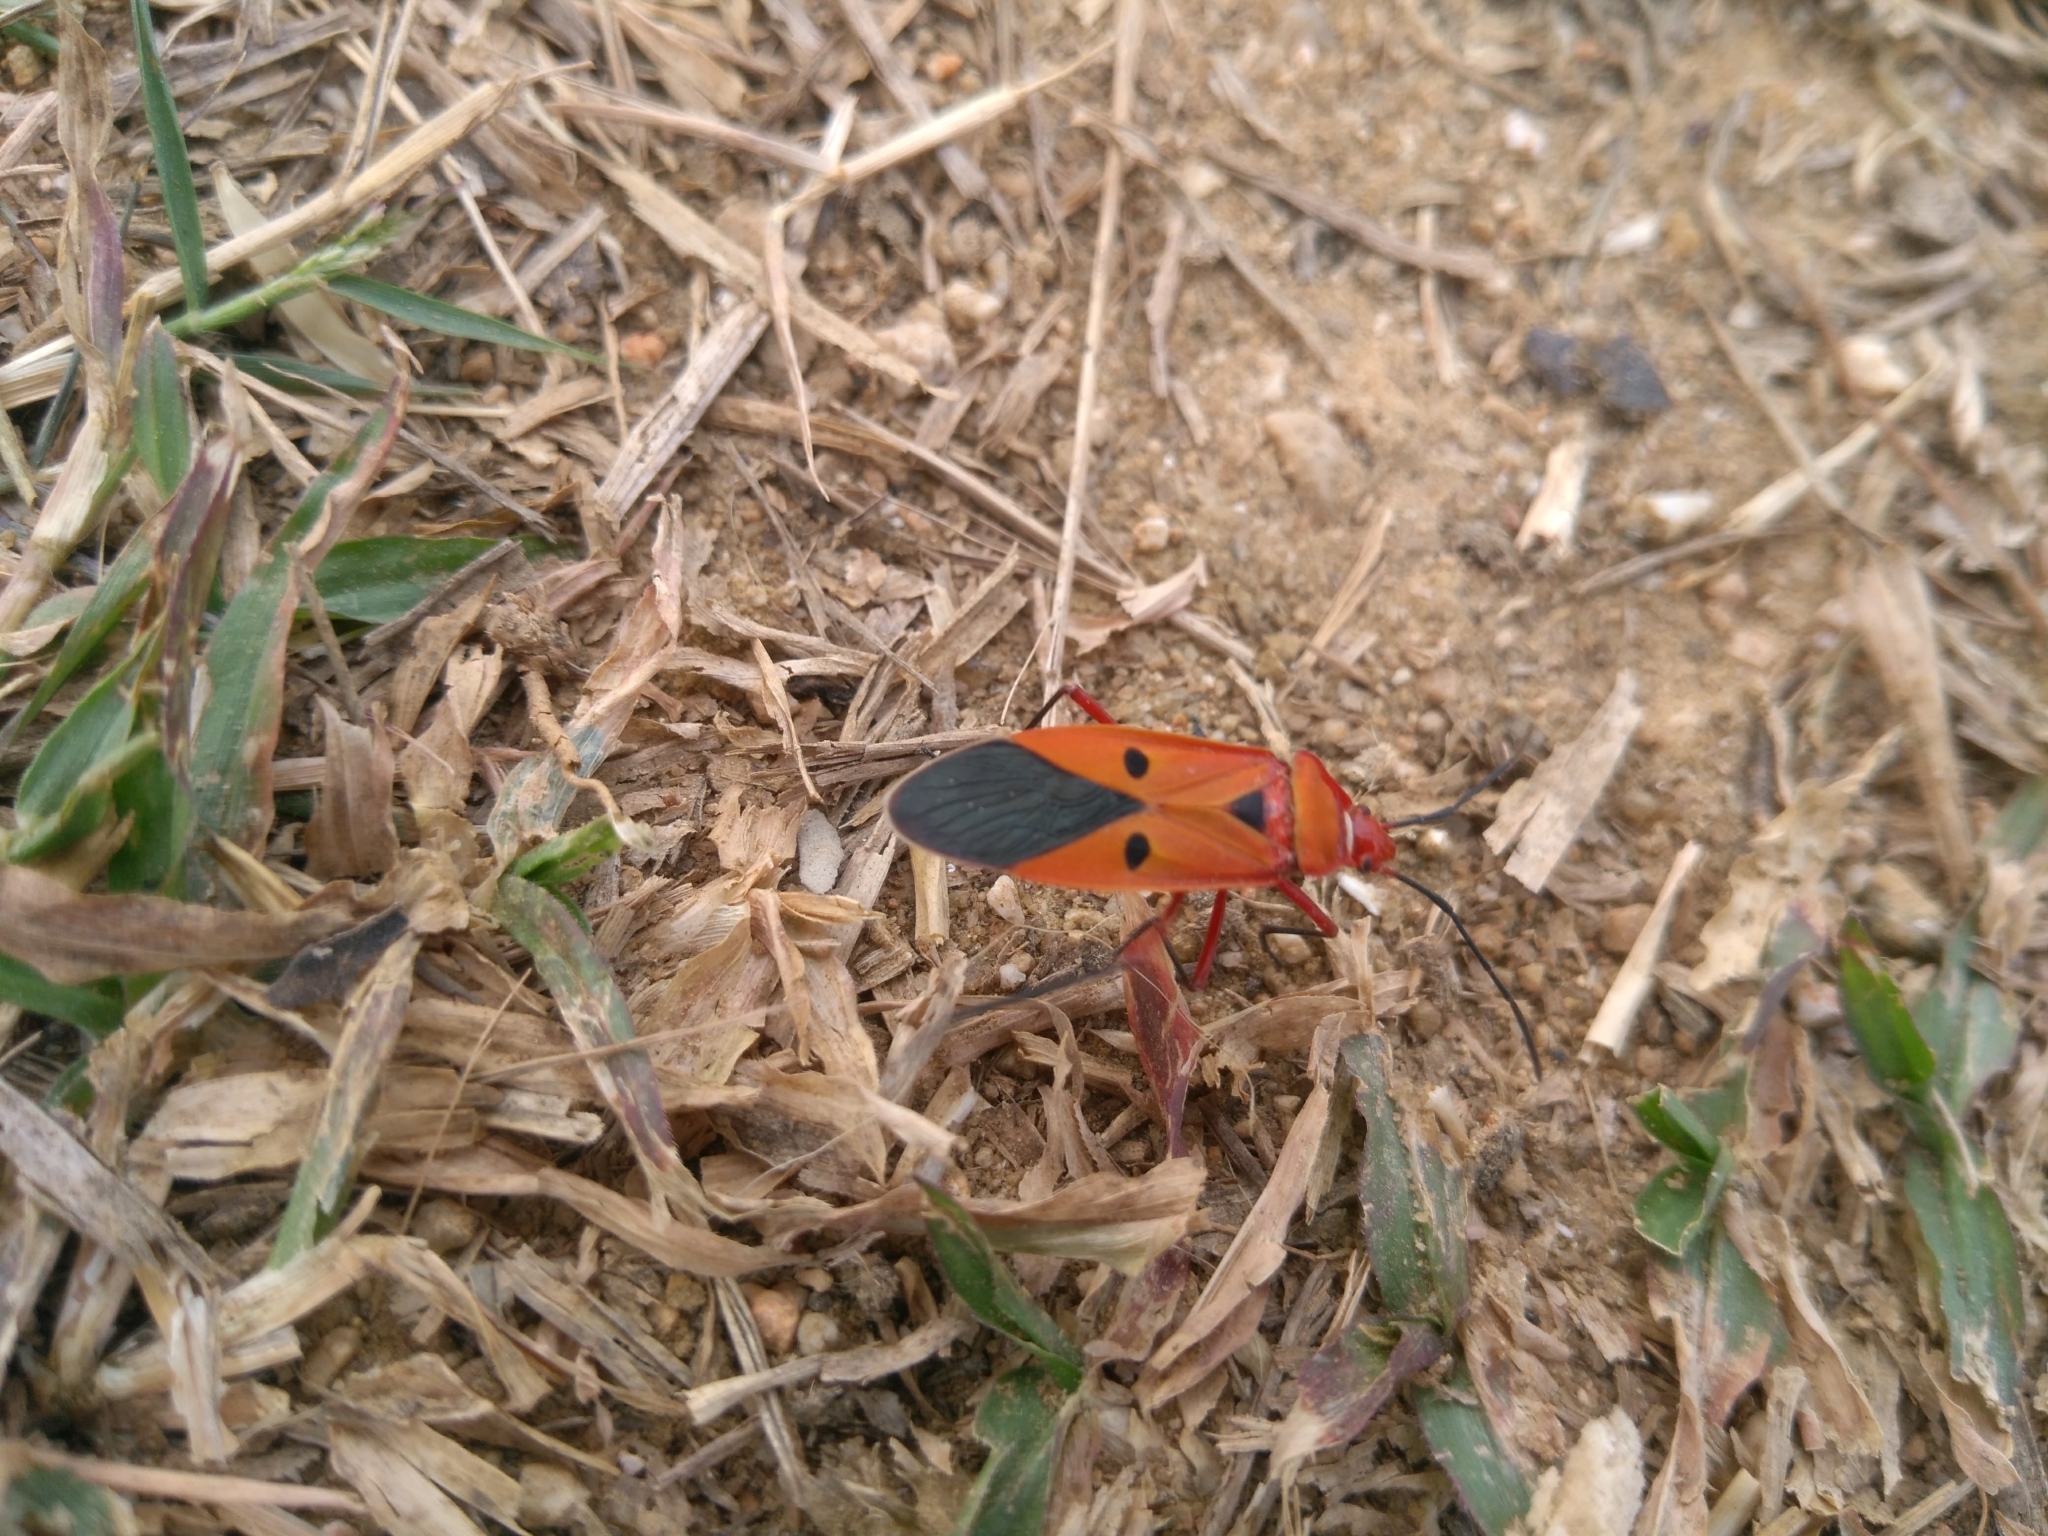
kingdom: Animalia
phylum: Arthropoda
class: Insecta
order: Hemiptera
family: Pyrrhocoridae
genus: Dysdercus
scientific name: Dysdercus koenigii
